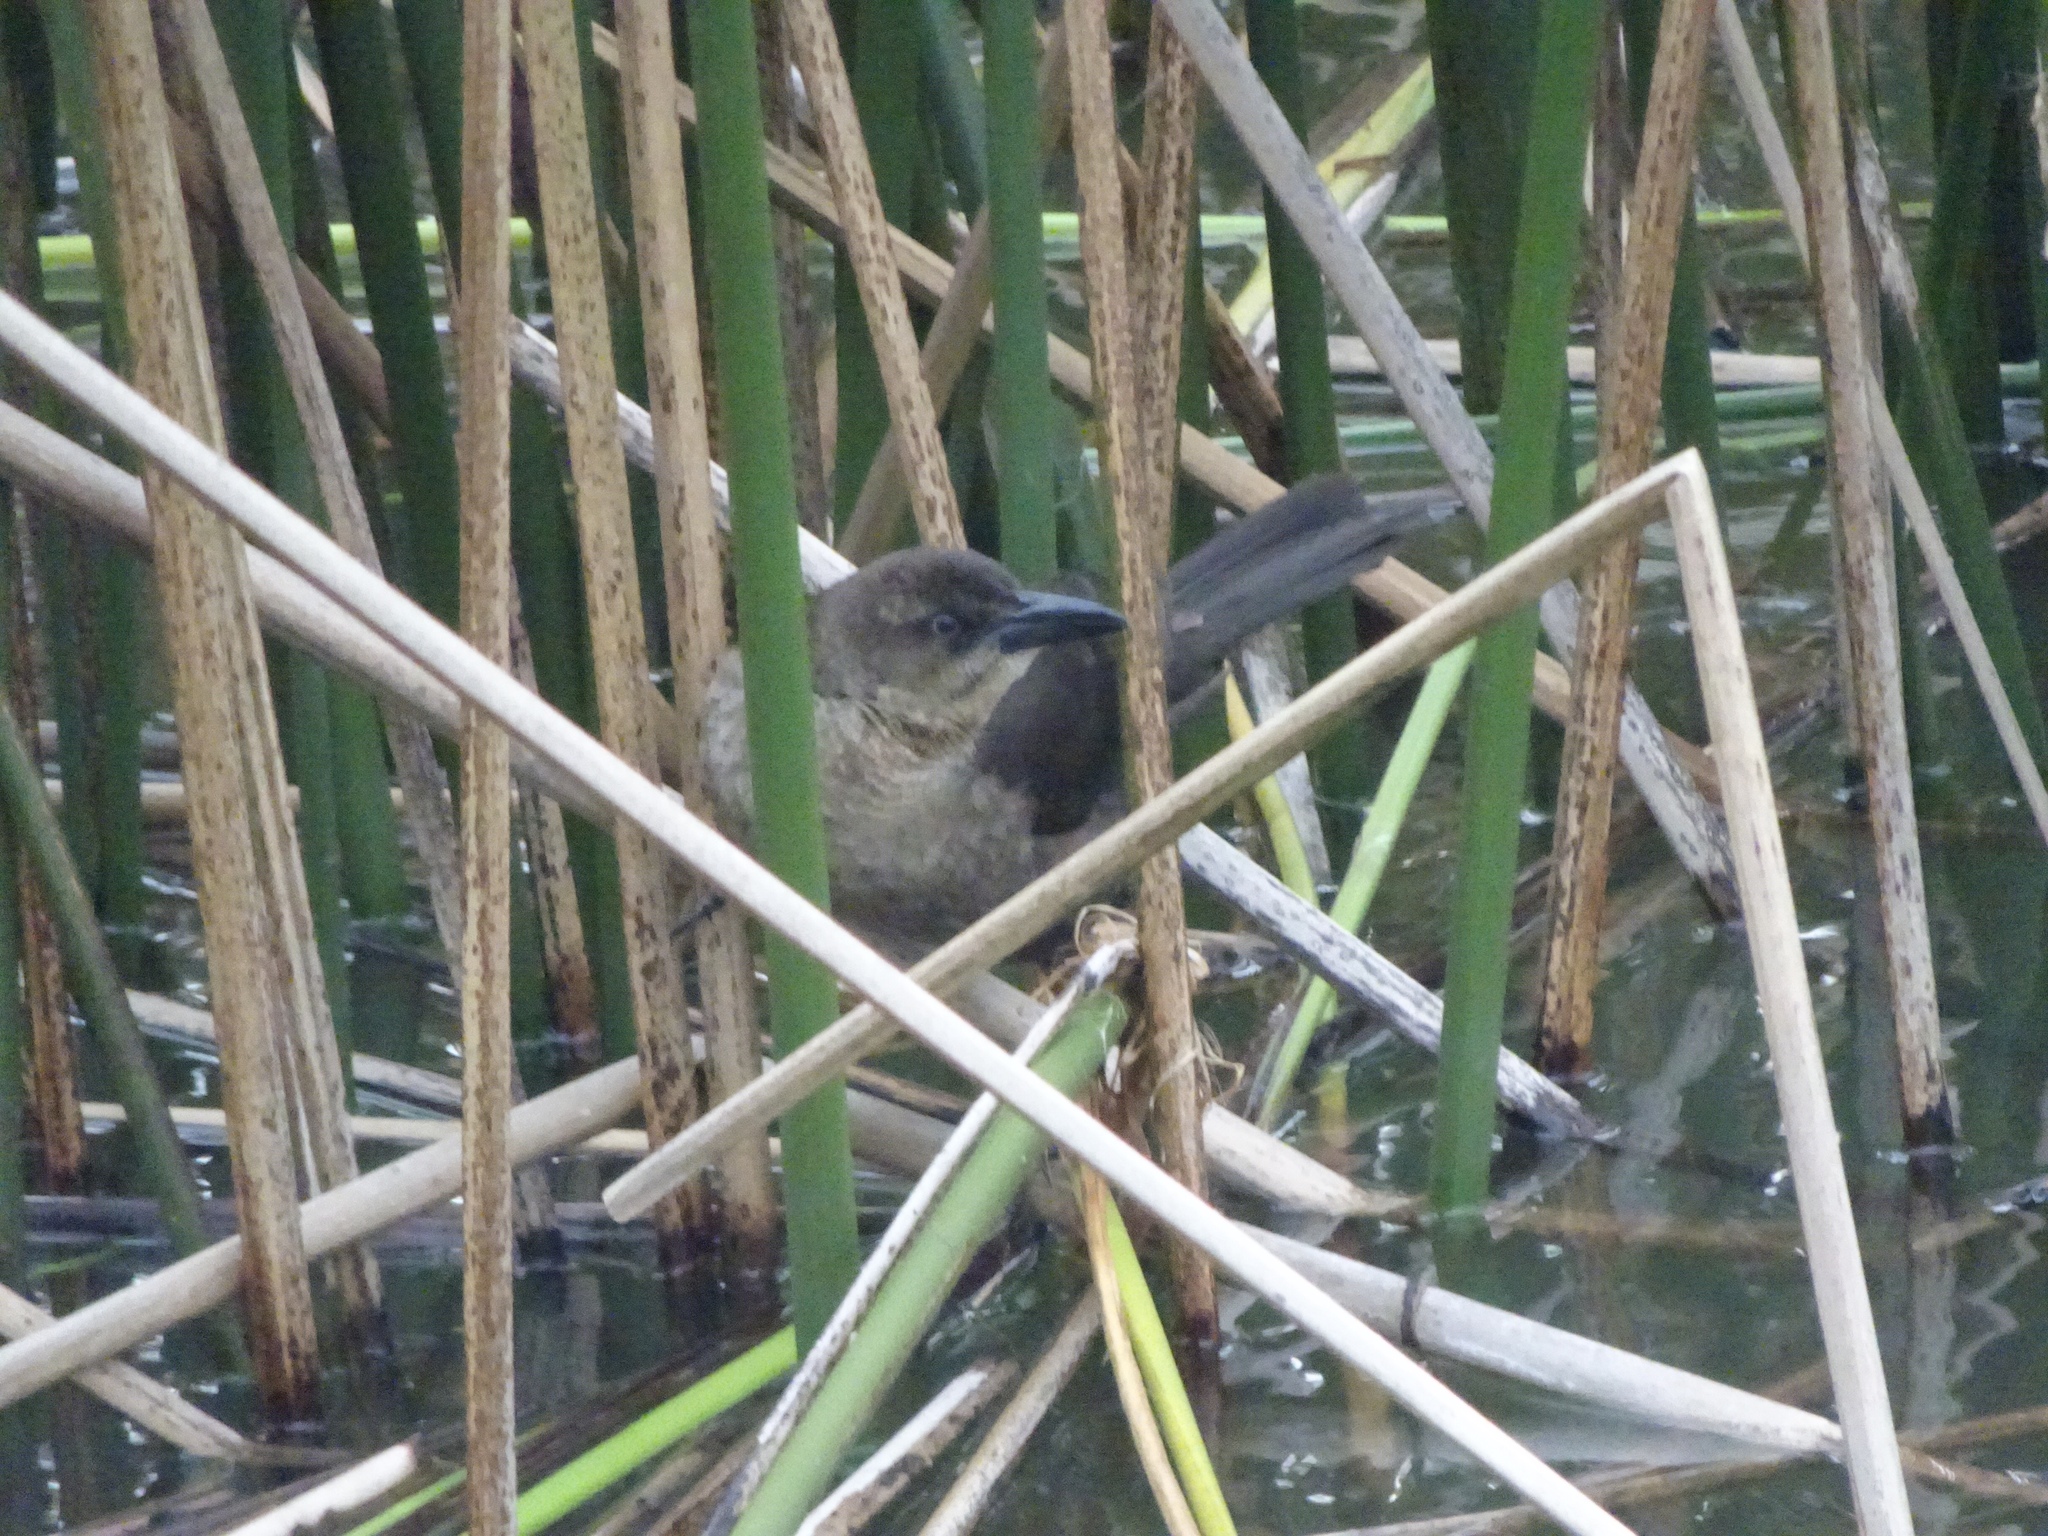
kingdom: Animalia
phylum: Chordata
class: Aves
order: Passeriformes
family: Icteridae
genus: Quiscalus
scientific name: Quiscalus mexicanus
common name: Great-tailed grackle
